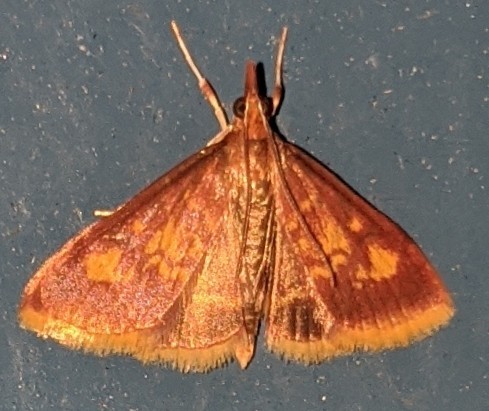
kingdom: Animalia
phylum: Arthropoda
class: Insecta
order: Lepidoptera
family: Crambidae
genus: Pyrausta
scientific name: Pyrausta acrionalis
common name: Mint-loving pyrausta moth
